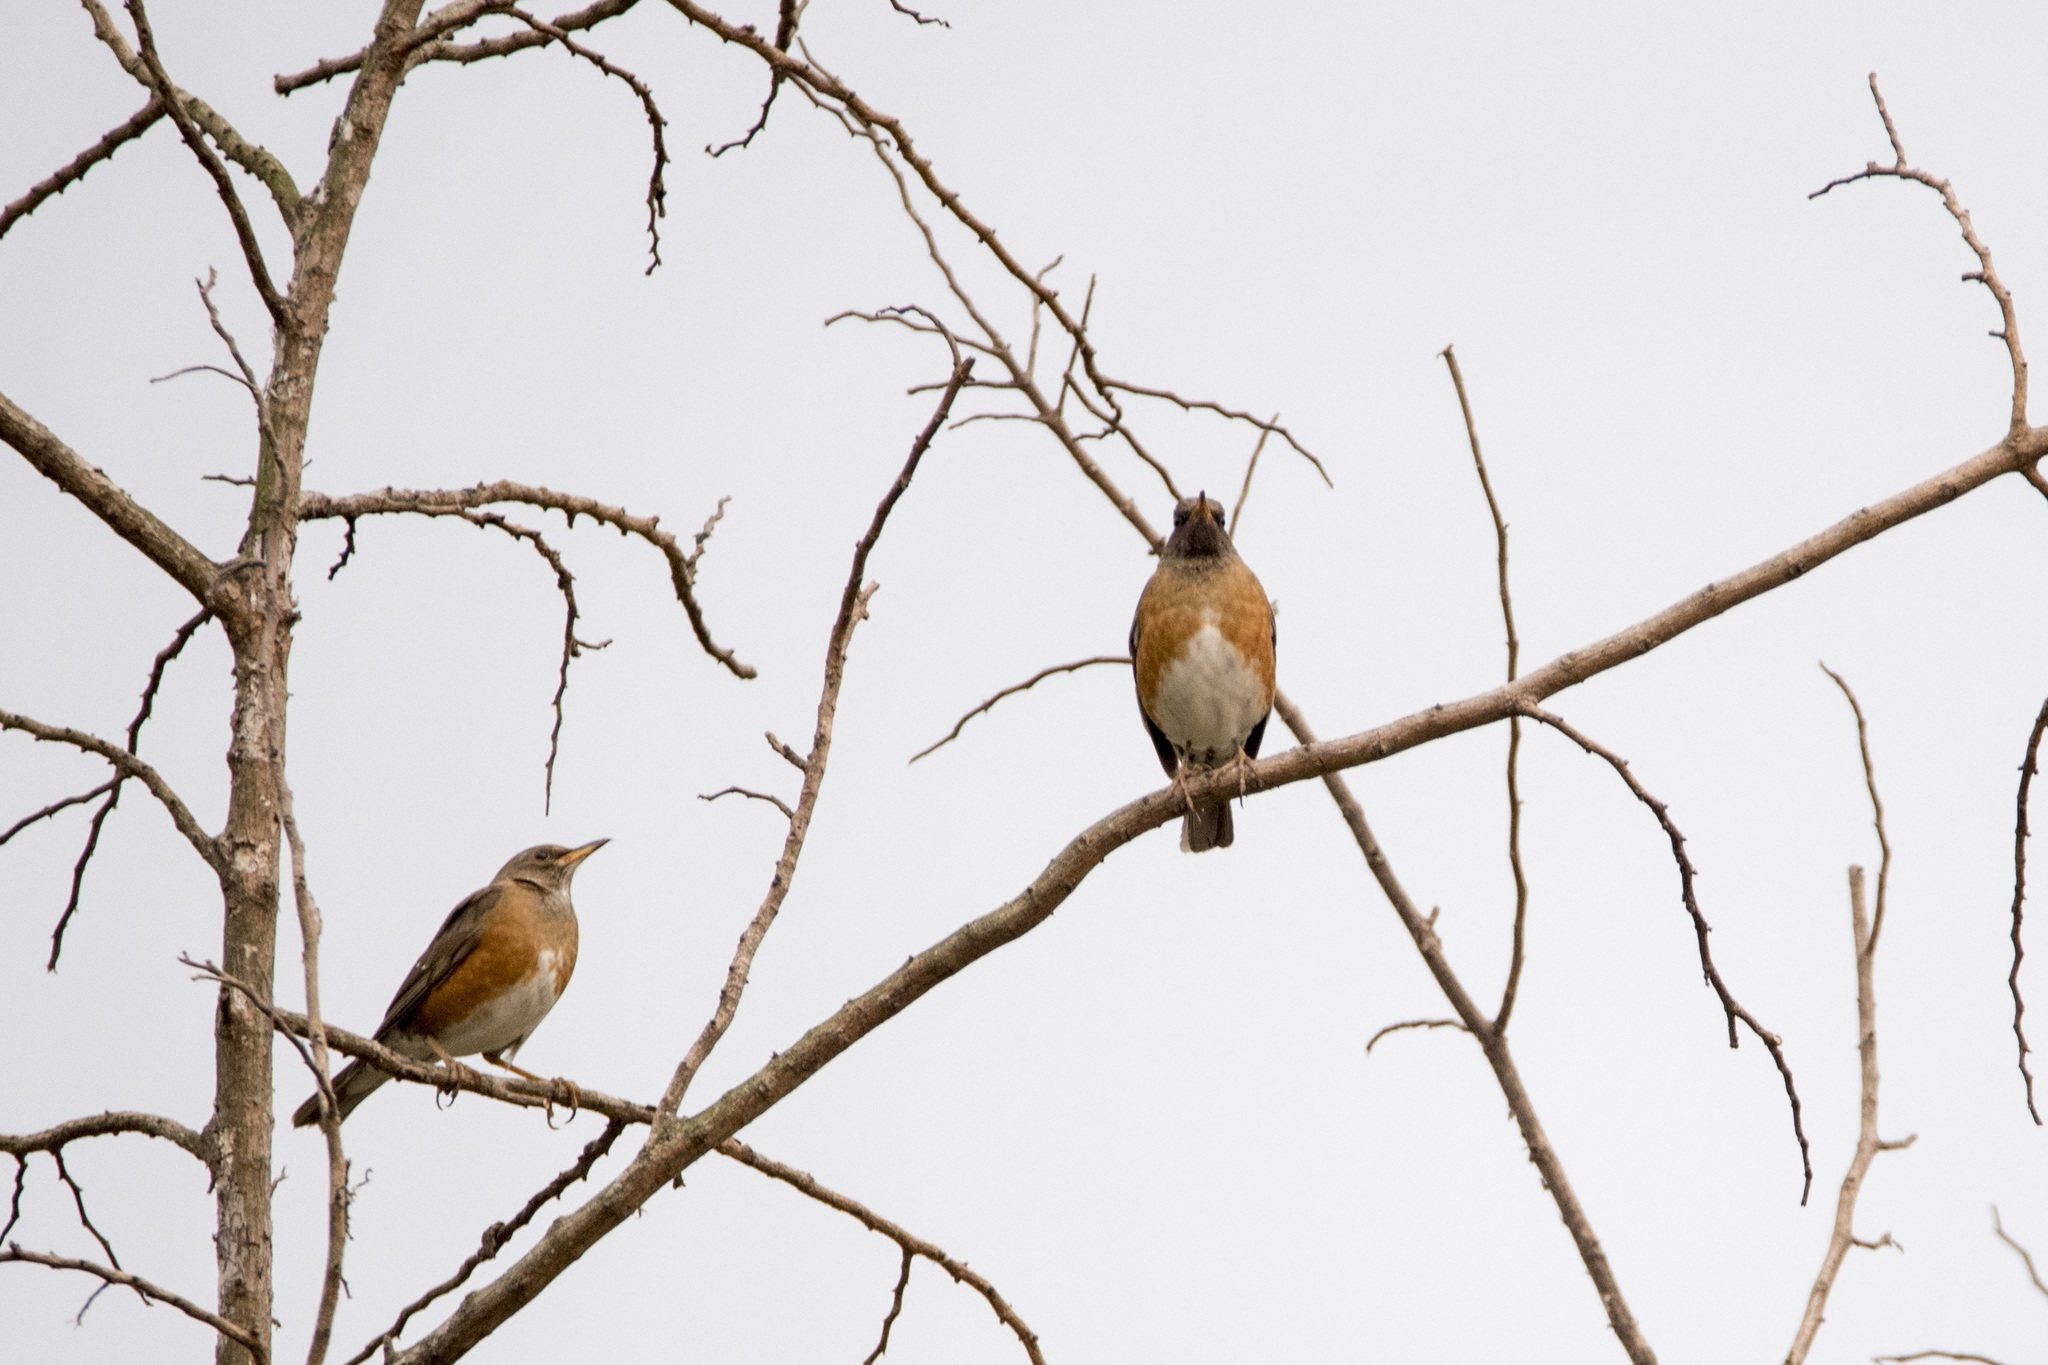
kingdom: Animalia
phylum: Chordata
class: Aves
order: Passeriformes
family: Turdidae
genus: Turdus
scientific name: Turdus chrysolaus
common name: Brown-headed thrush
